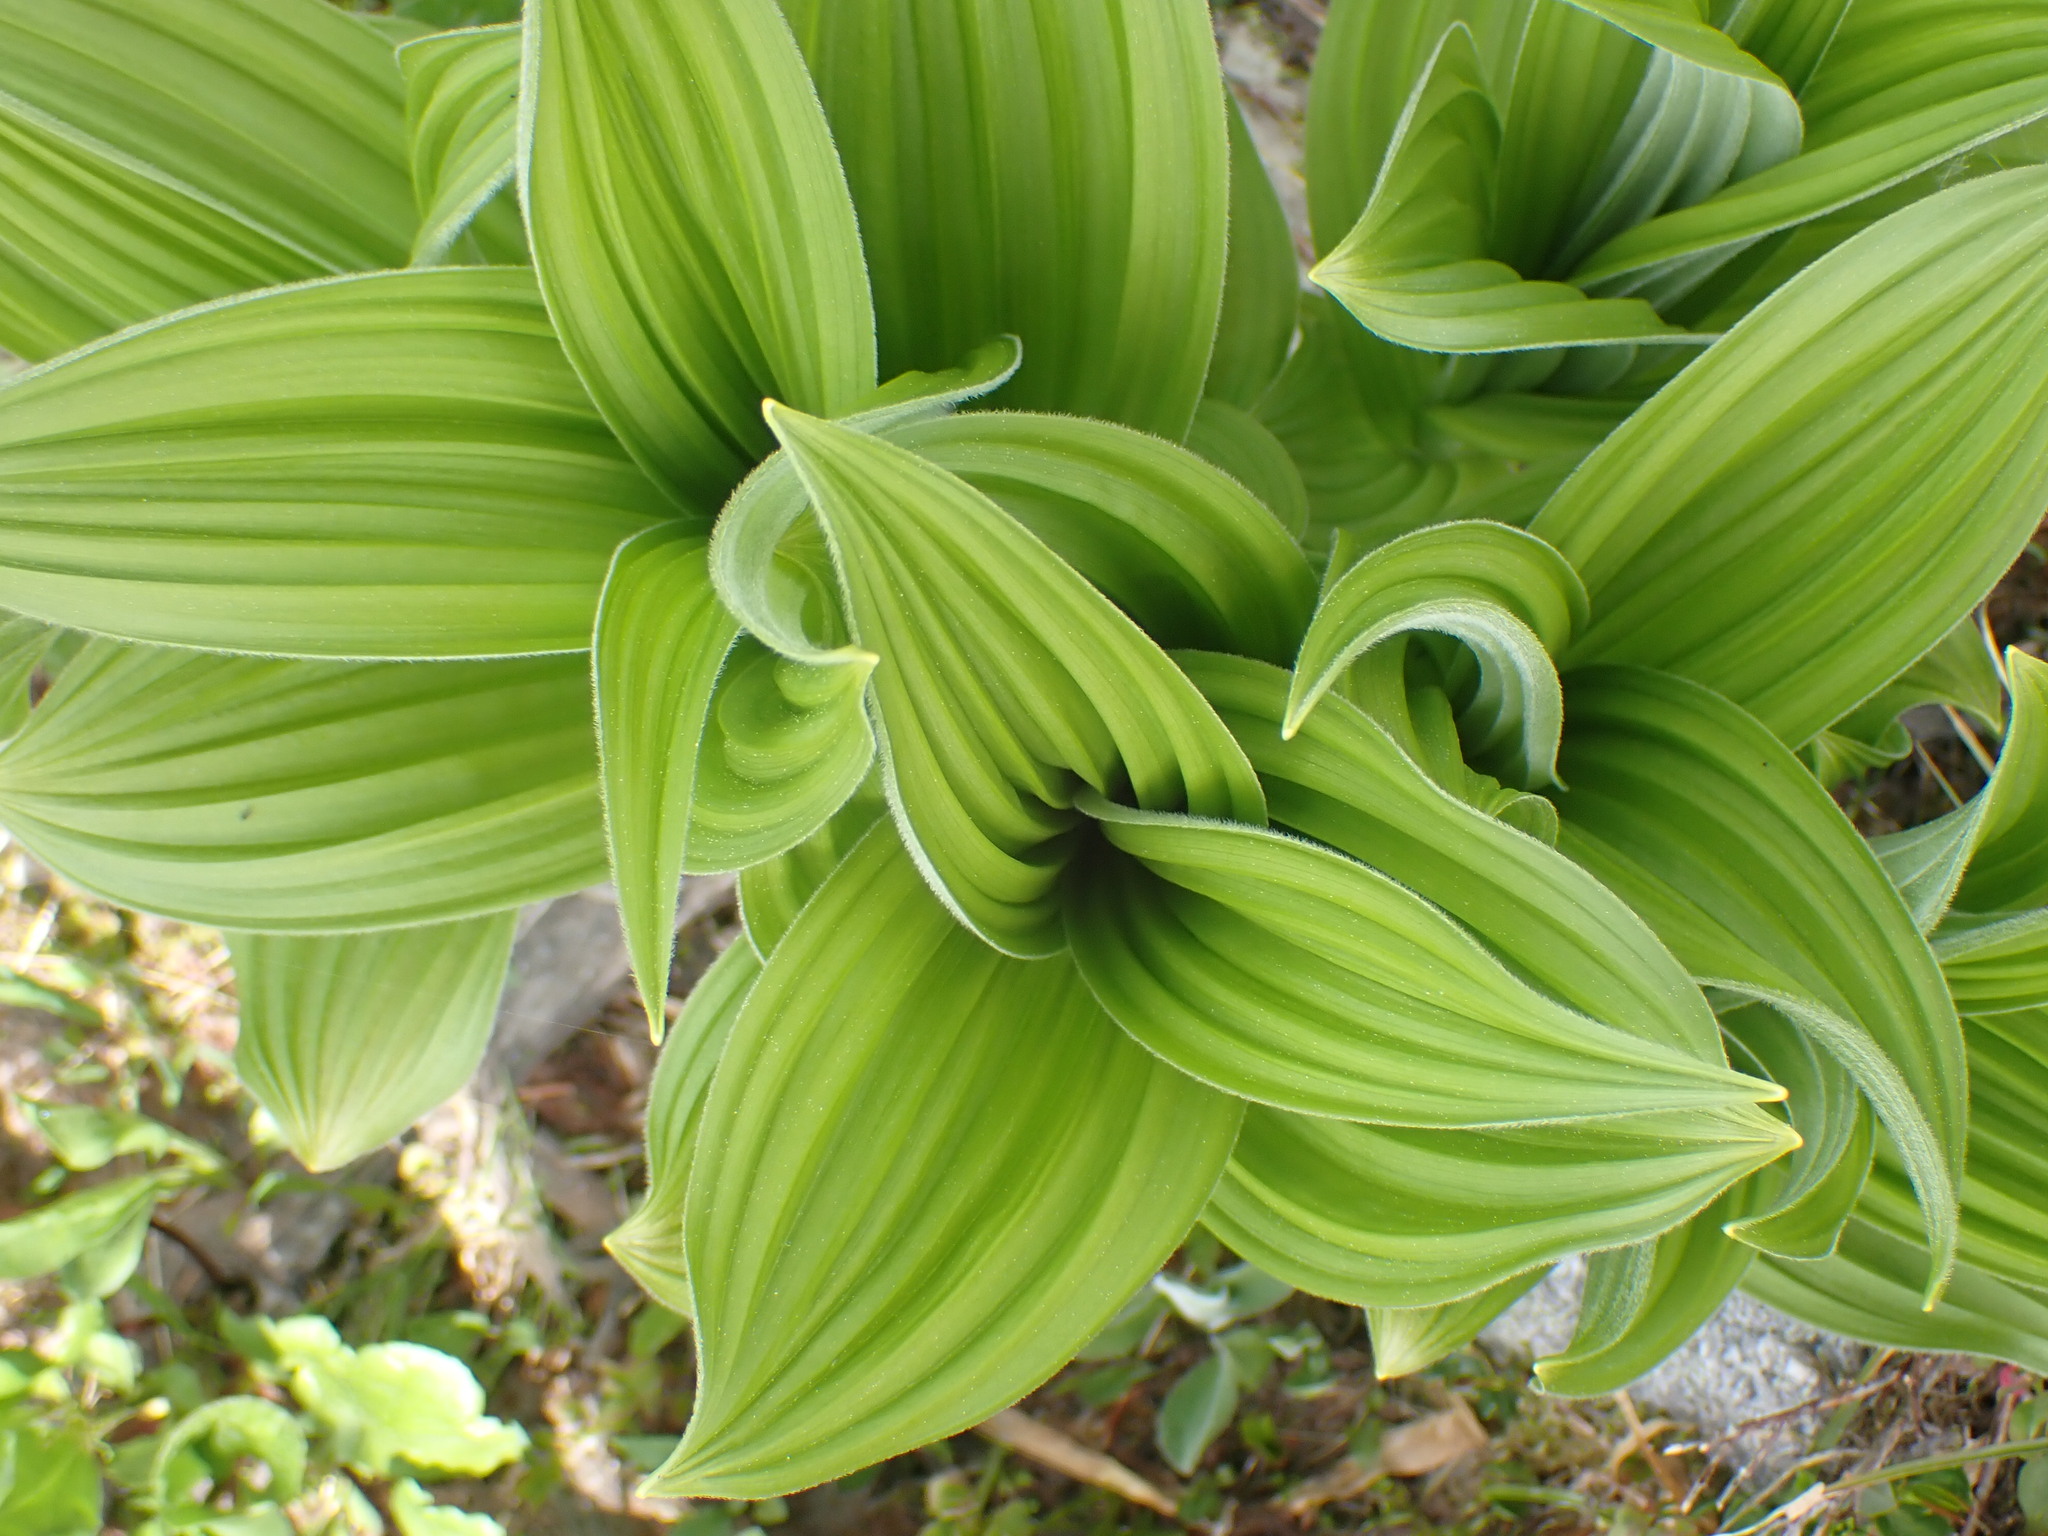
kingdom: Plantae
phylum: Tracheophyta
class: Liliopsida
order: Liliales
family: Melanthiaceae
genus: Veratrum
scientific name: Veratrum viride
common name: American false hellebore
